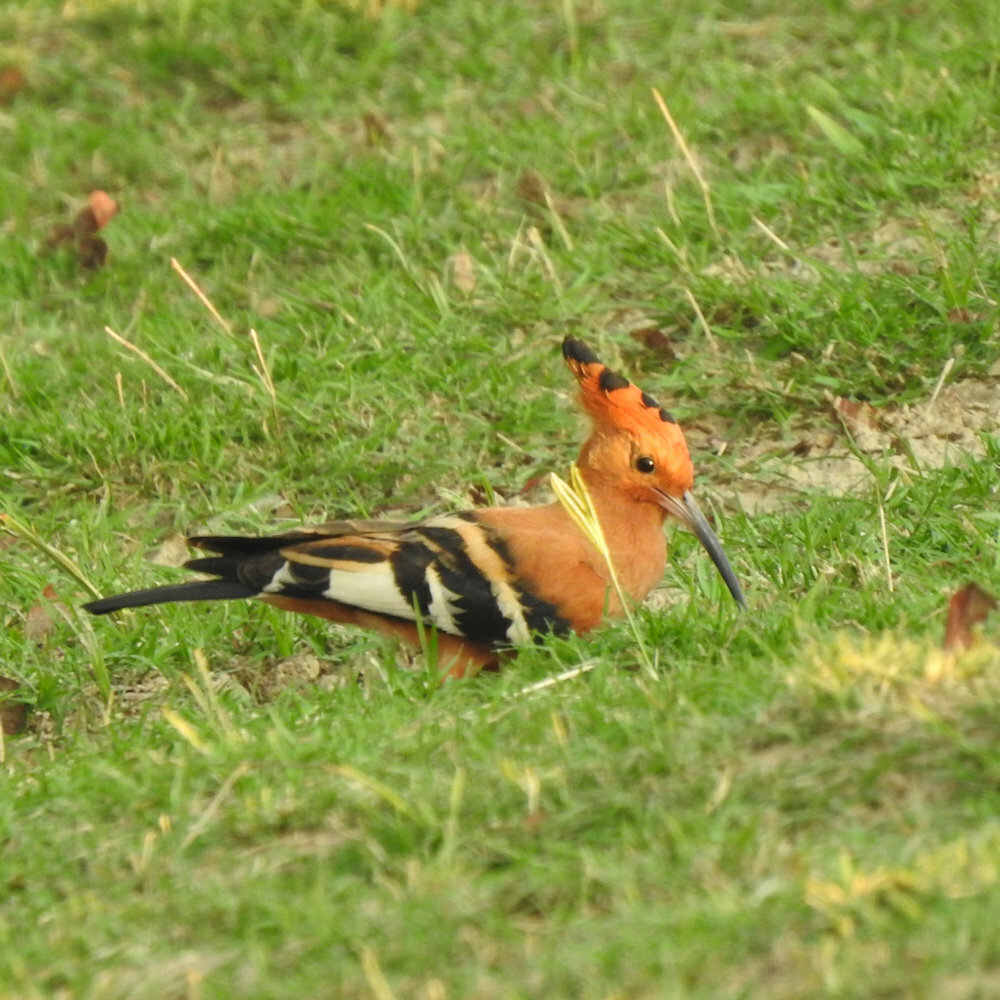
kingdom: Animalia
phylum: Chordata
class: Aves
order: Bucerotiformes
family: Upupidae
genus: Upupa
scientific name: Upupa epops
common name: Eurasian hoopoe
